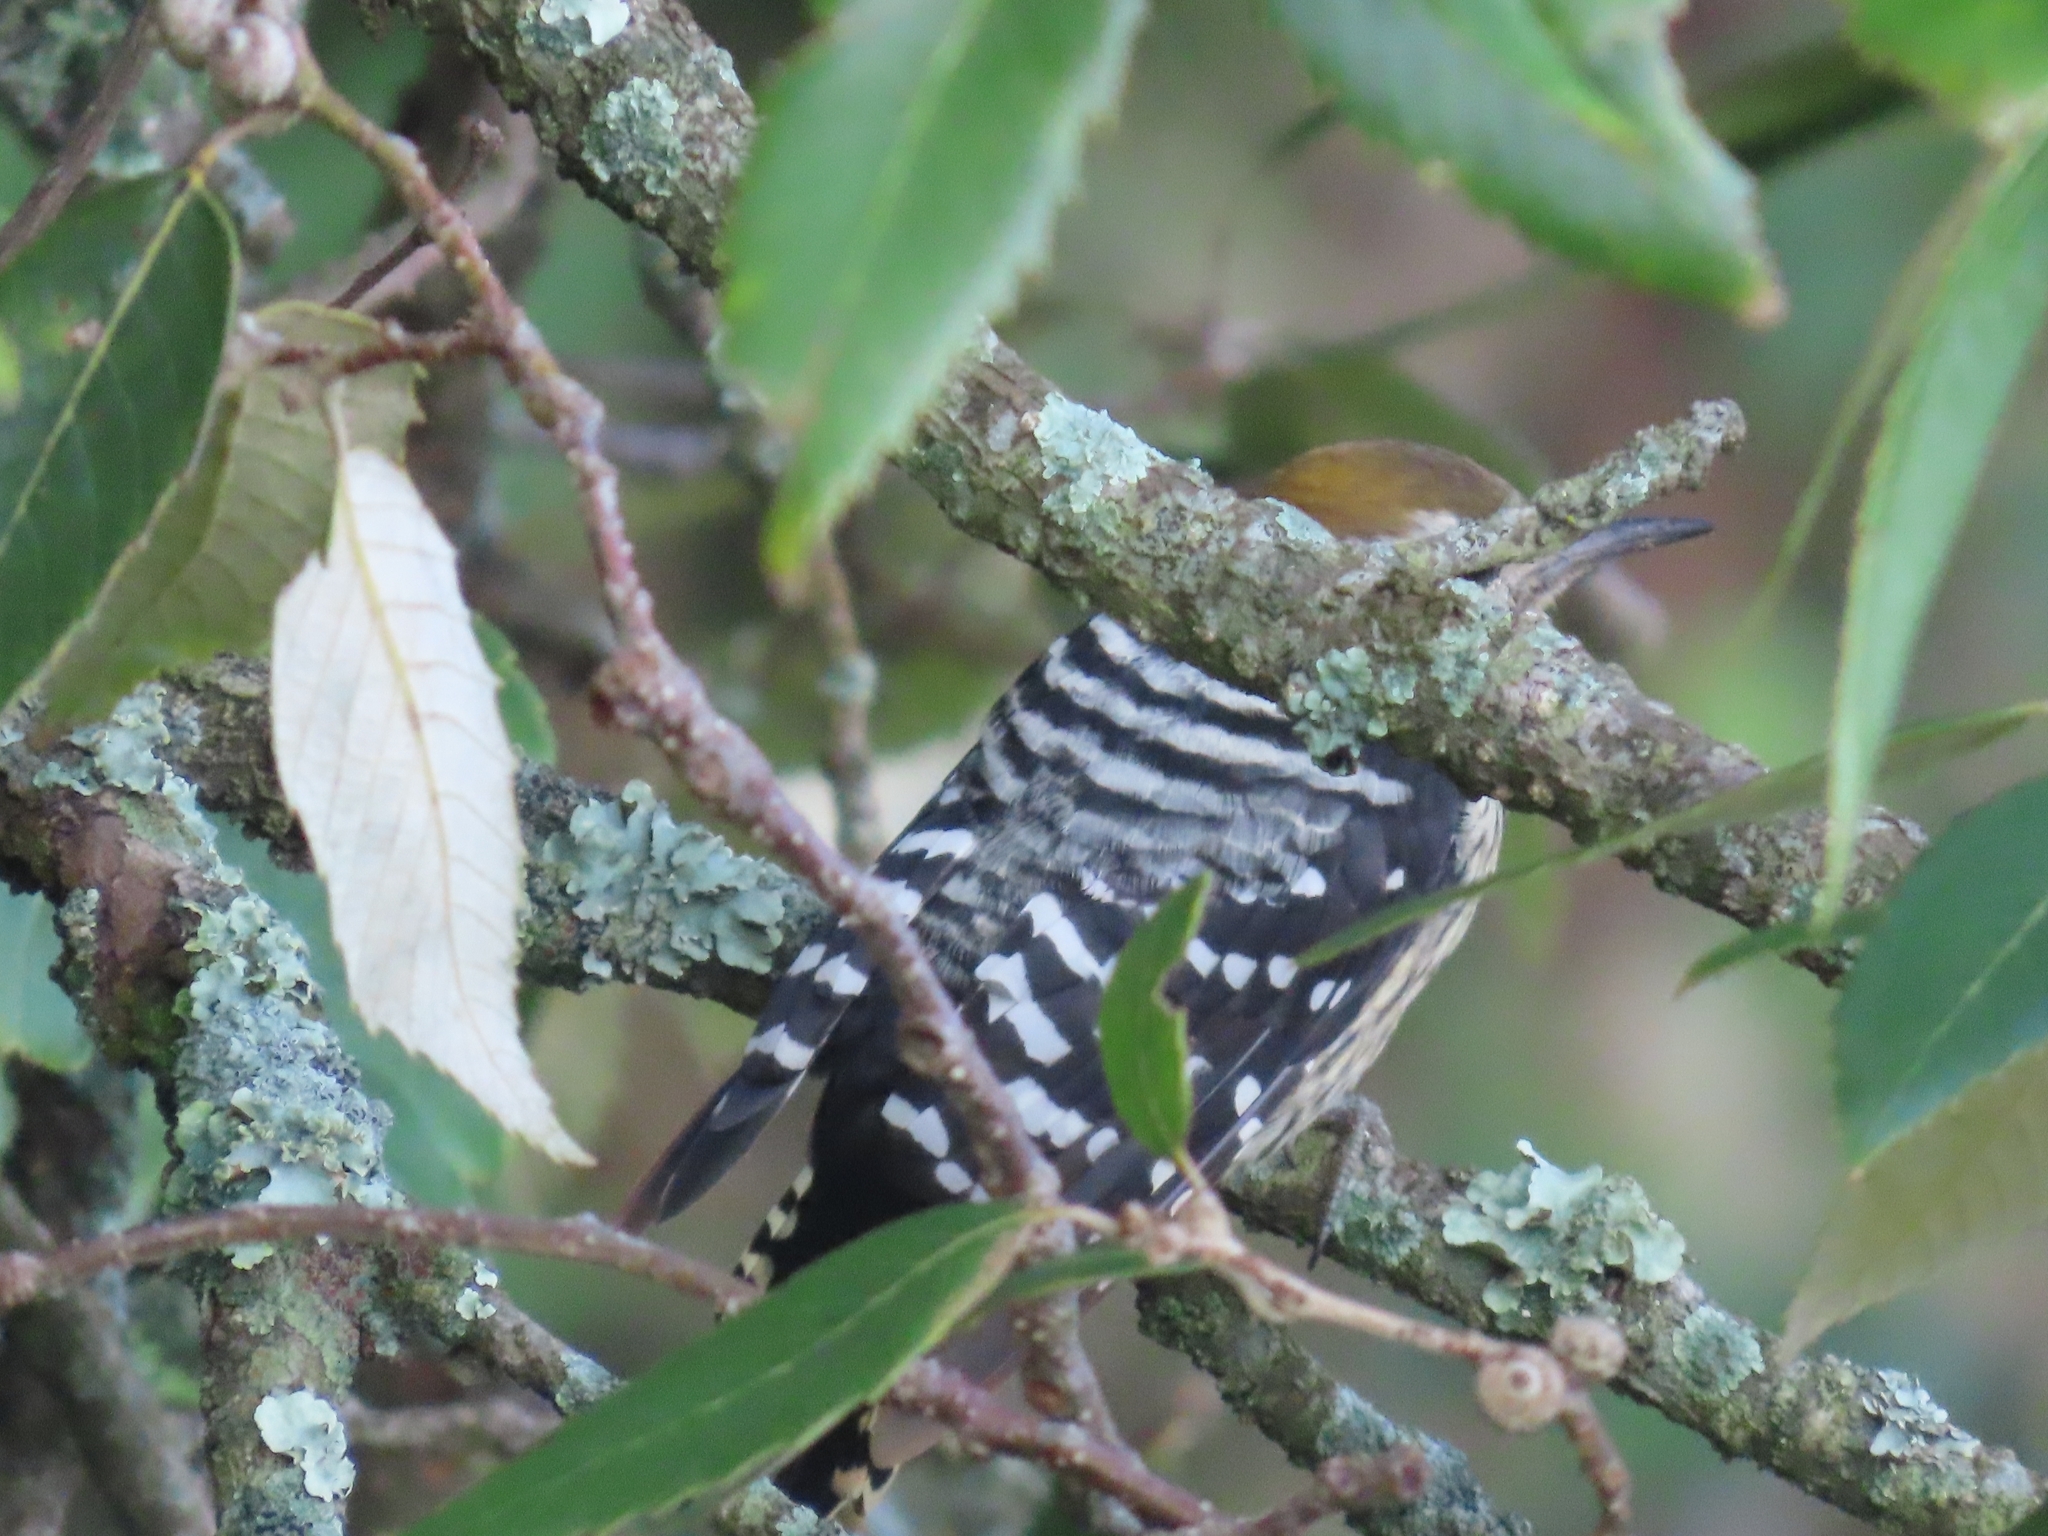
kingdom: Animalia
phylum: Chordata
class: Aves
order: Piciformes
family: Picidae
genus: Dendrocoptes
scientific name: Dendrocoptes auriceps
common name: Brown-fronted woodpecker
